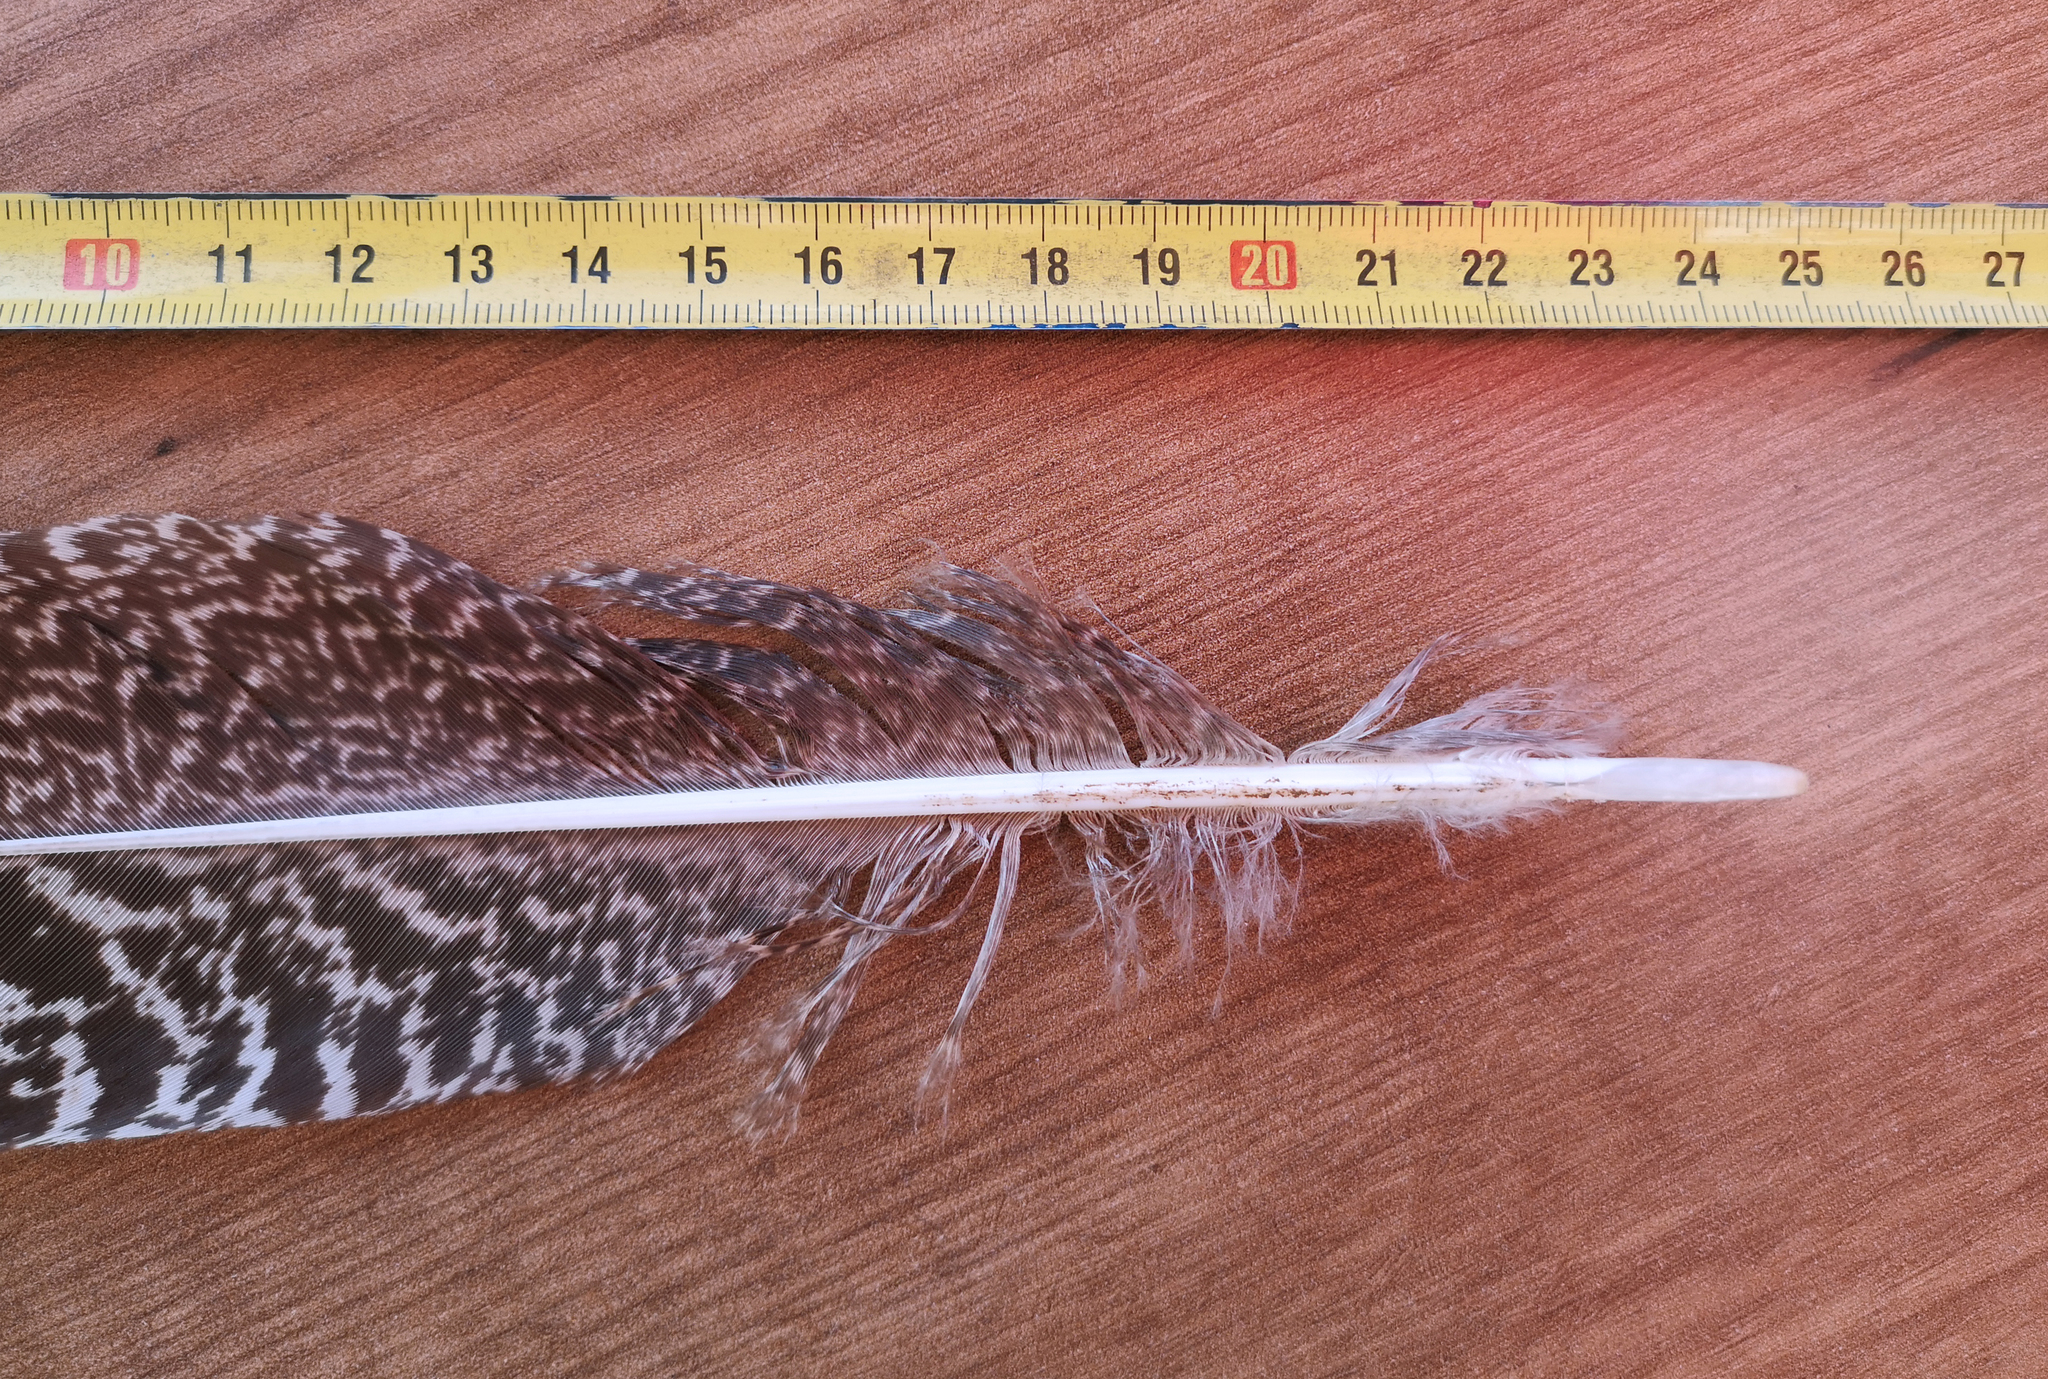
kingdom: Animalia
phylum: Chordata
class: Aves
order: Galliformes
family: Phasianidae
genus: Pavo
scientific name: Pavo cristatus
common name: Indian peafowl
